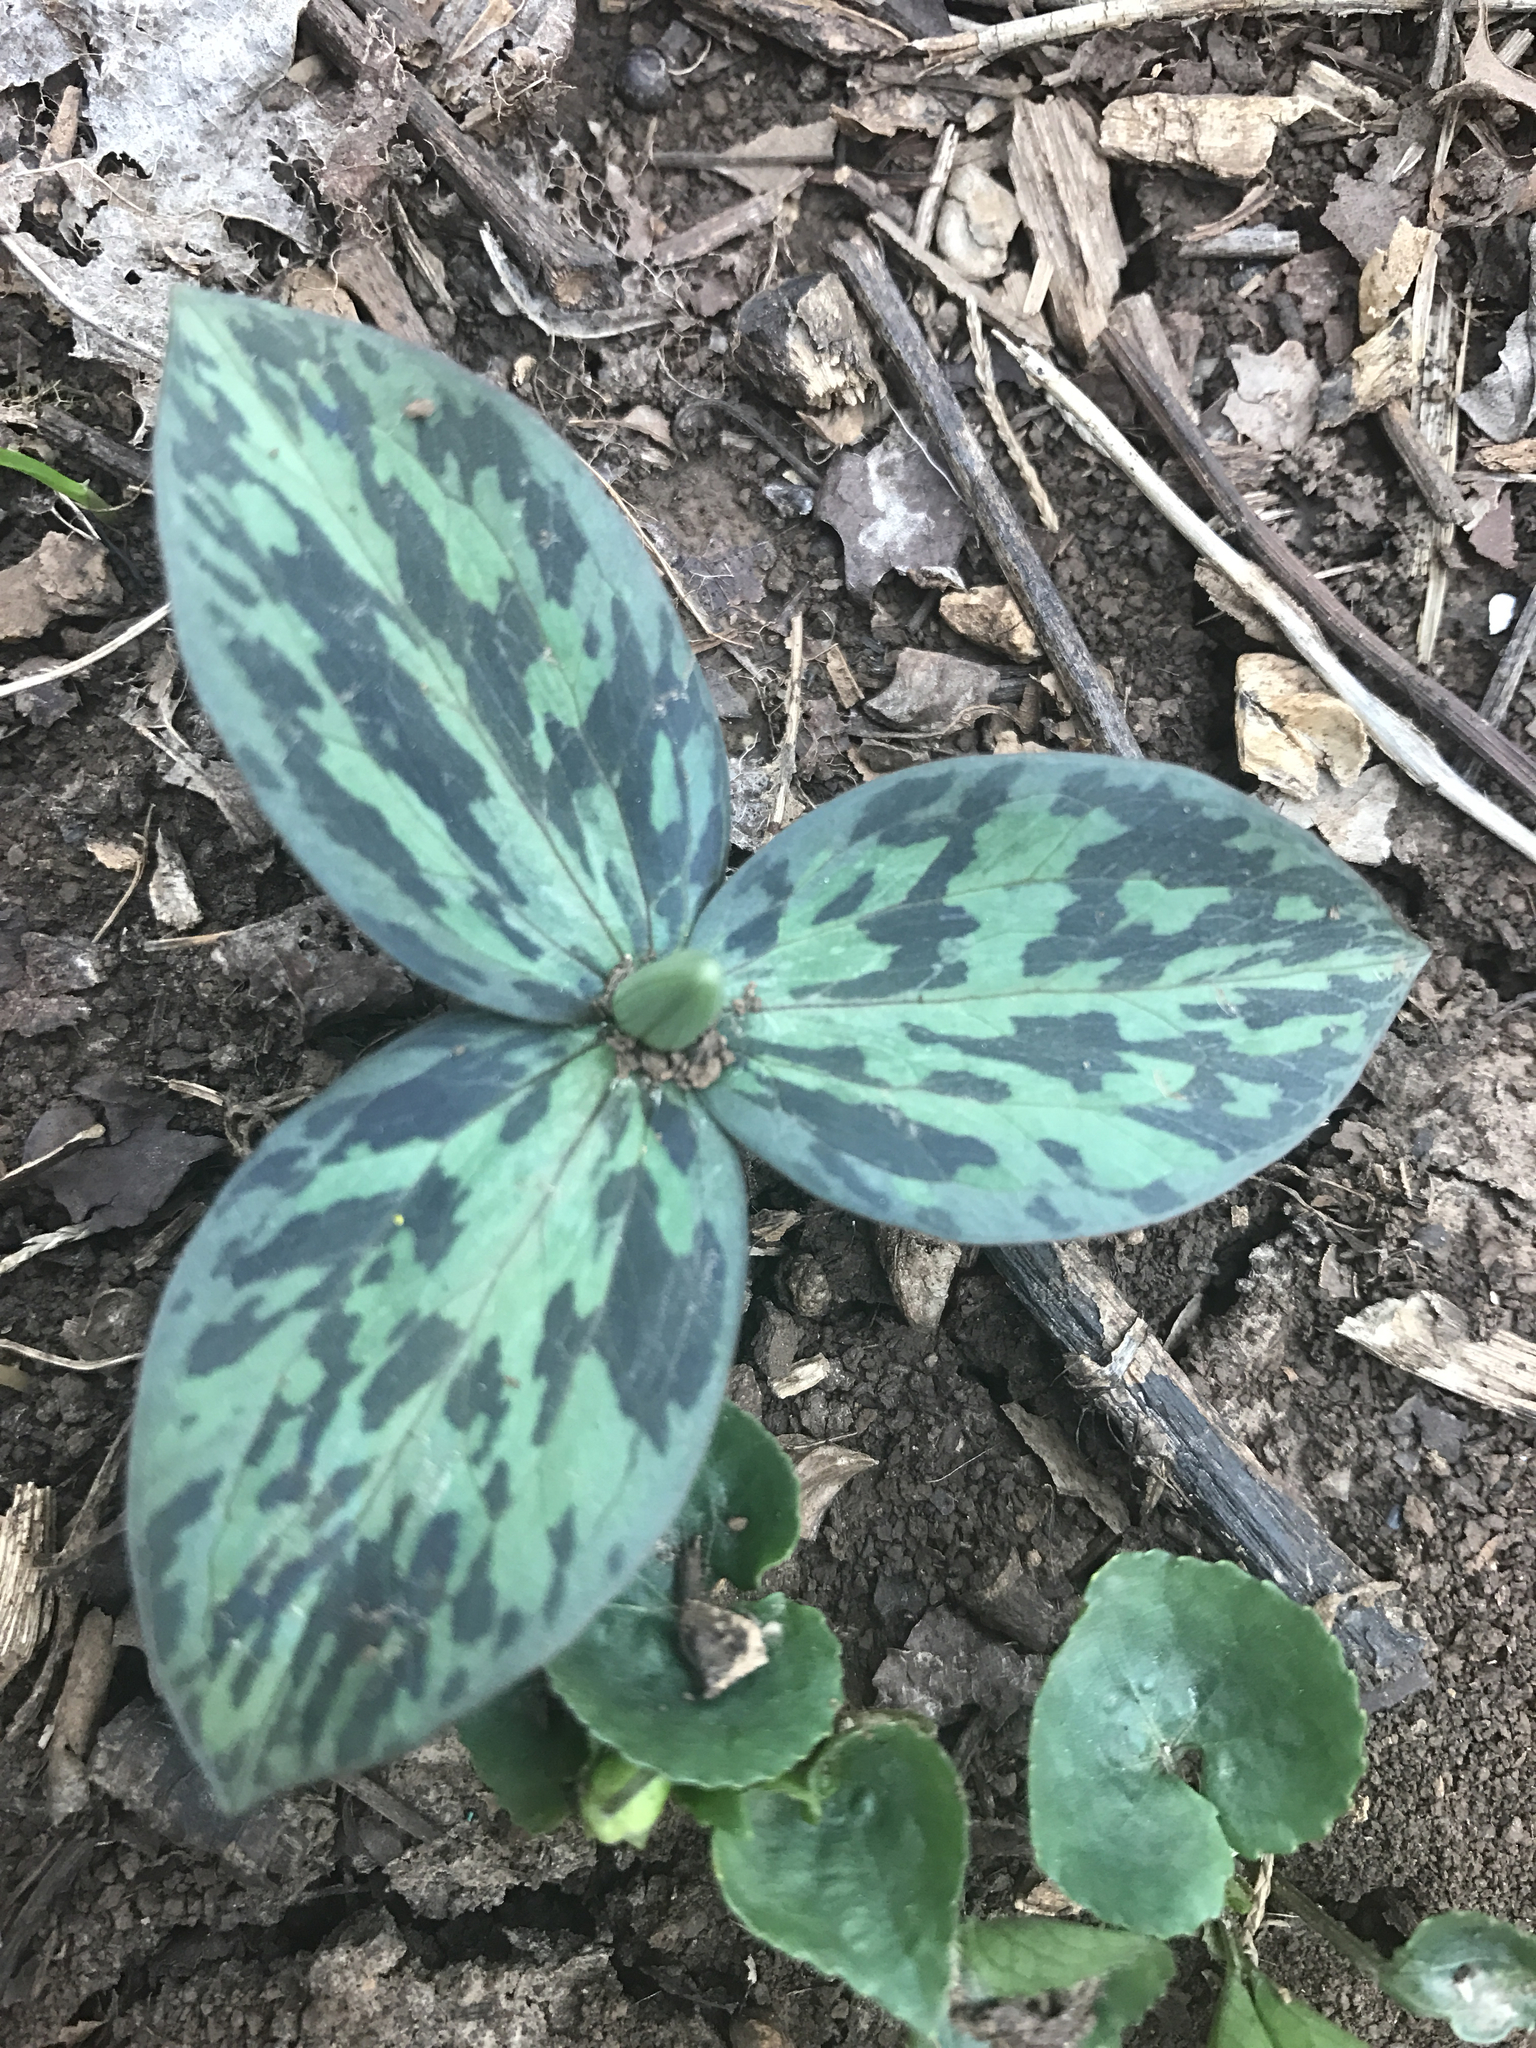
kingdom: Plantae
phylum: Tracheophyta
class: Liliopsida
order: Liliales
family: Melanthiaceae
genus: Trillium
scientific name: Trillium sessile
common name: Sessile trillium
